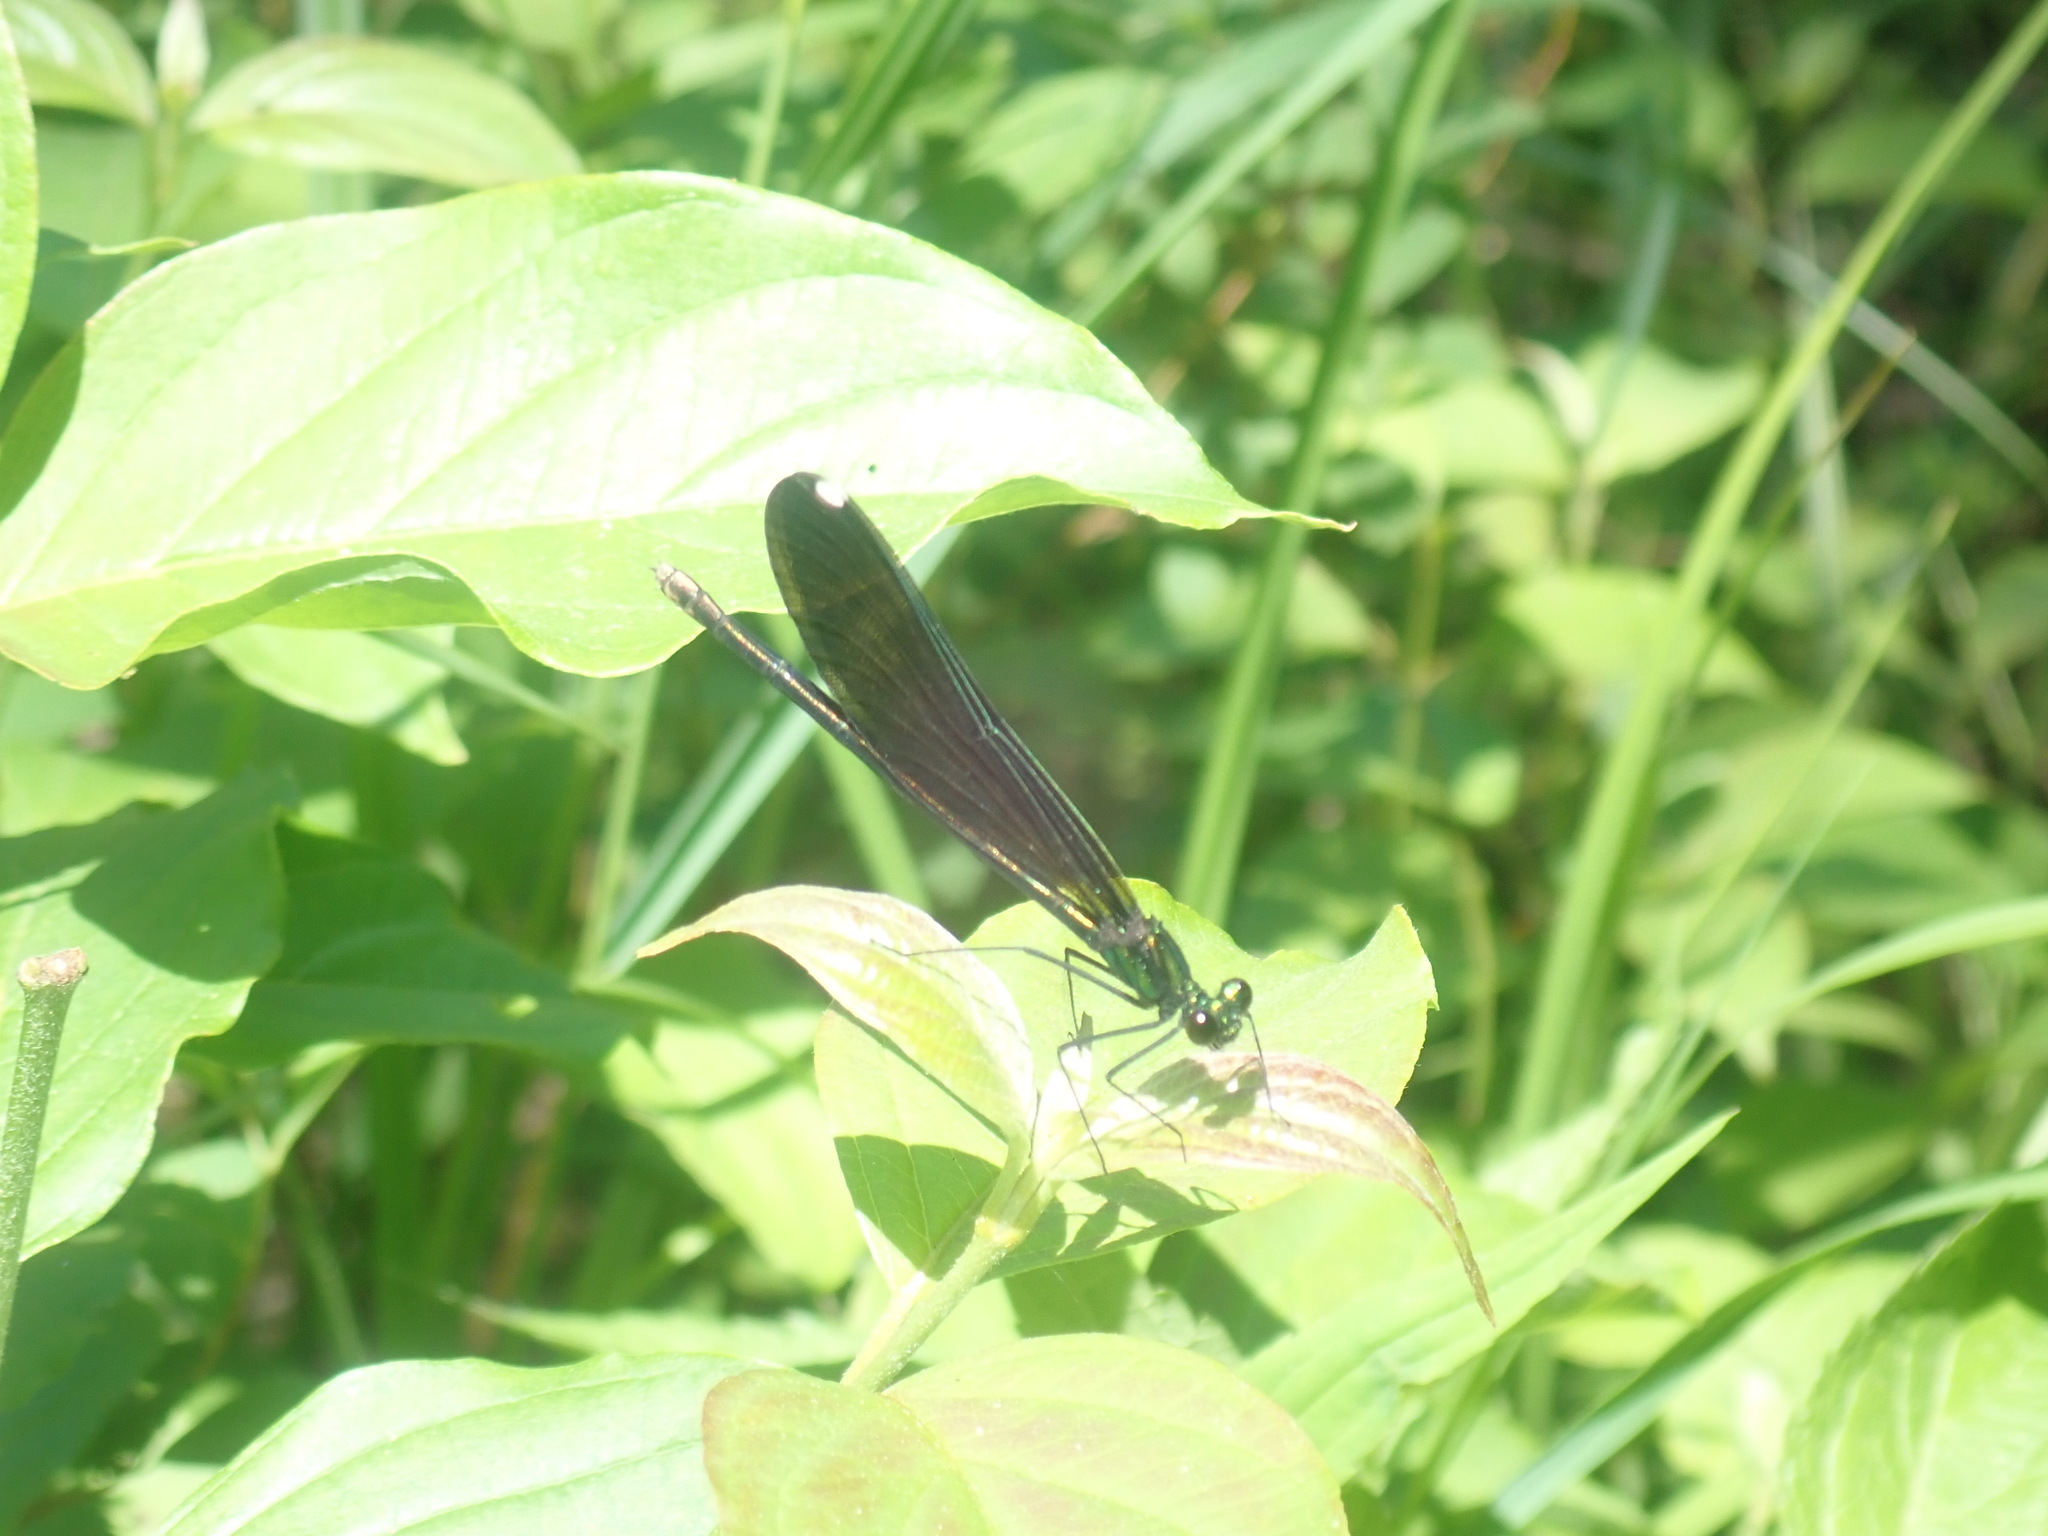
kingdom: Animalia
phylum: Arthropoda
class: Insecta
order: Odonata
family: Calopterygidae
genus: Calopteryx
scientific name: Calopteryx maculata
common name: Ebony jewelwing
